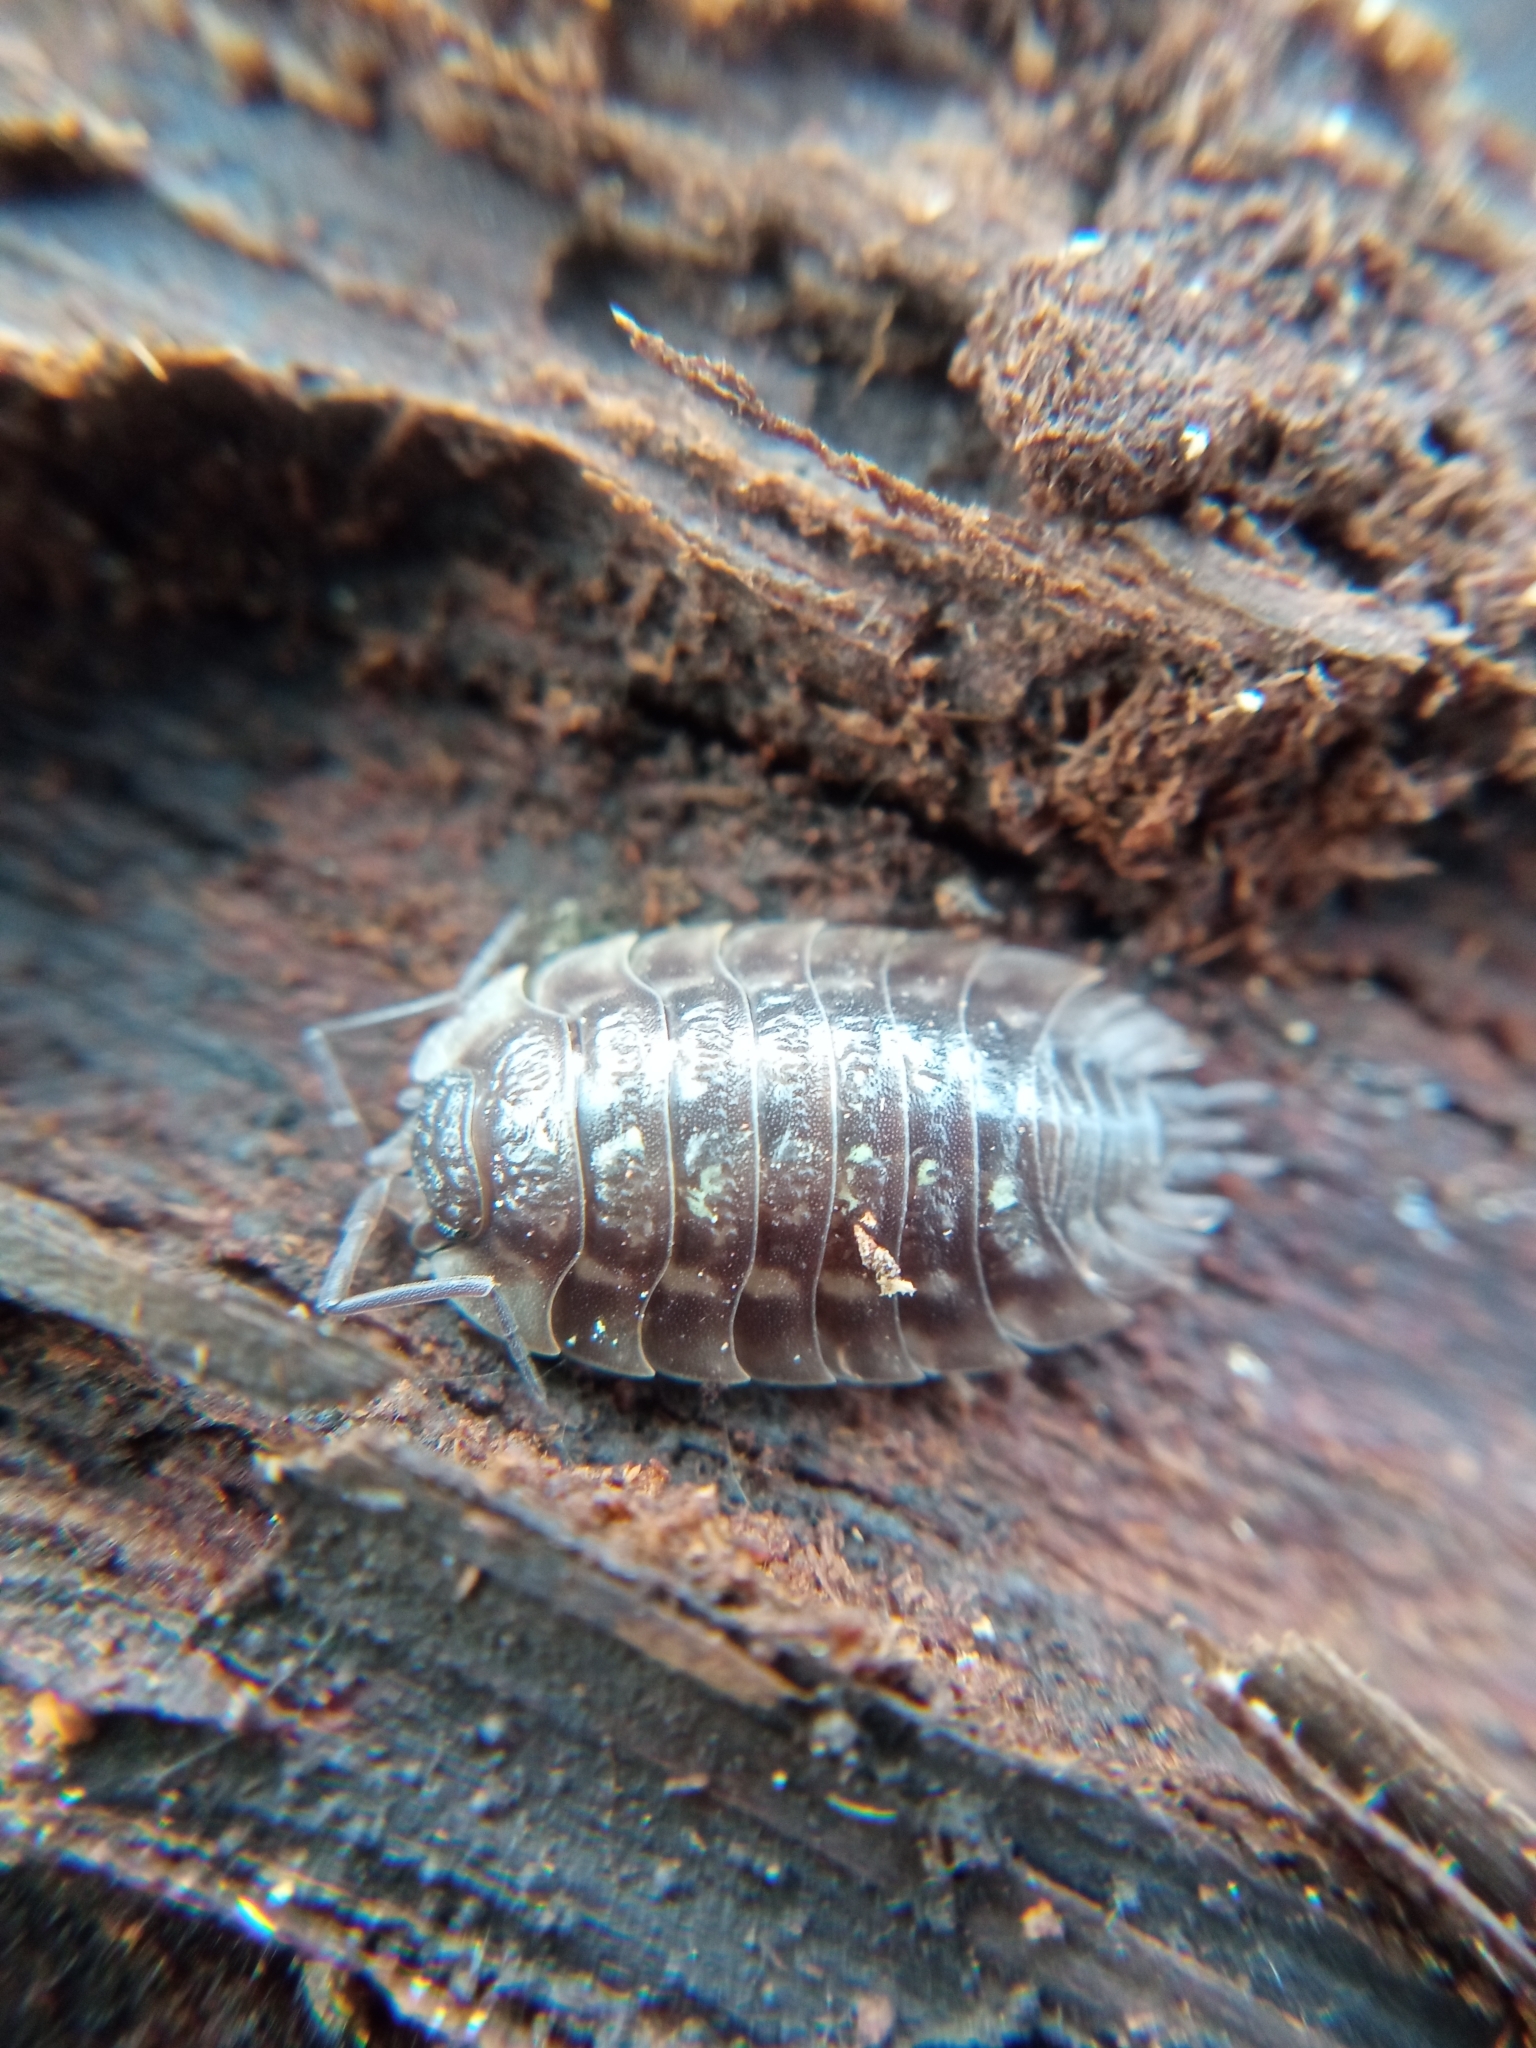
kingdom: Animalia
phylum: Arthropoda
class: Malacostraca
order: Isopoda
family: Oniscidae
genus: Oniscus
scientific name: Oniscus asellus
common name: Common shiny woodlouse
